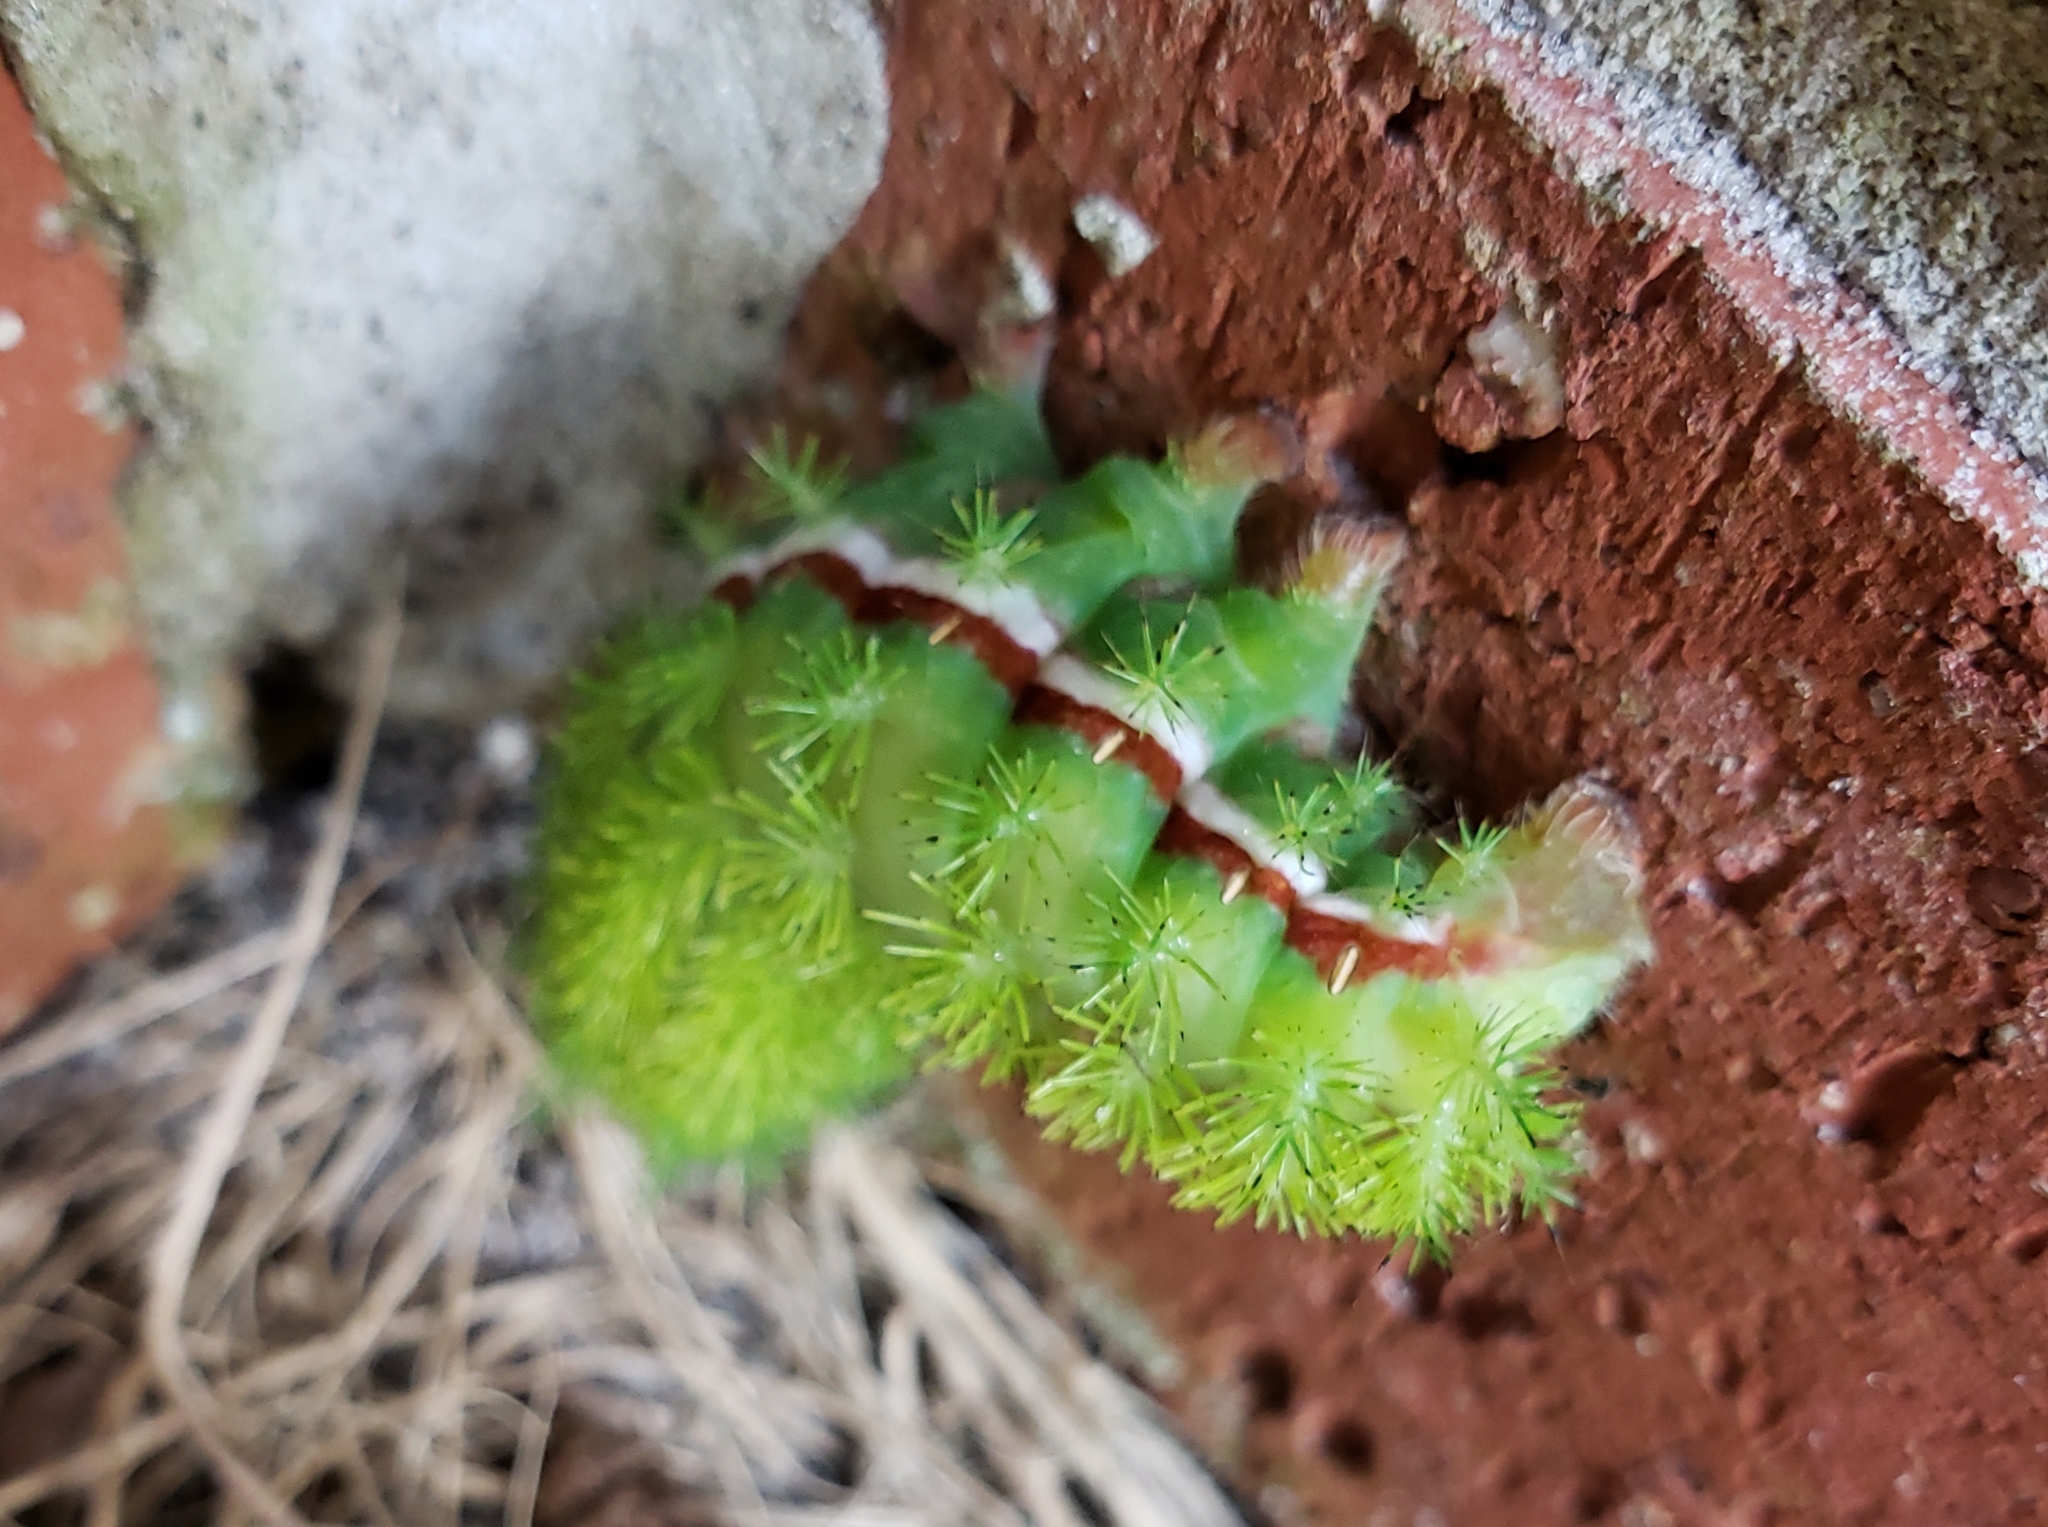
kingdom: Animalia
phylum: Arthropoda
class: Insecta
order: Lepidoptera
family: Saturniidae
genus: Automeris
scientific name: Automeris io
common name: Io moth
